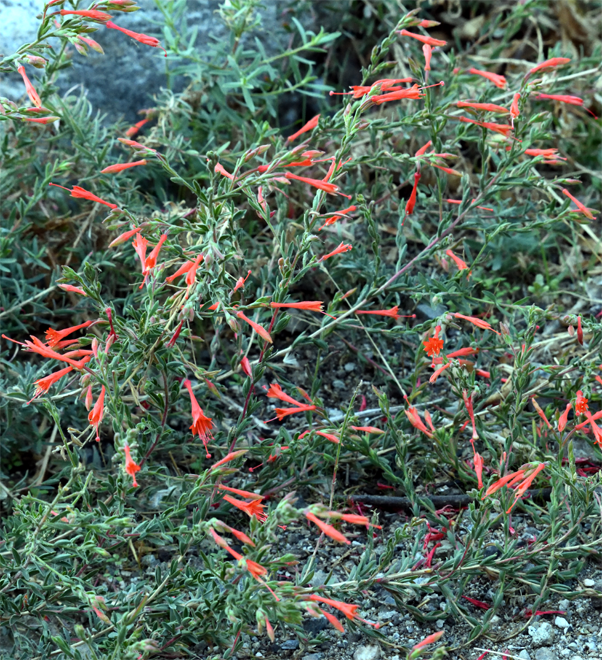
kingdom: Plantae
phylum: Tracheophyta
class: Magnoliopsida
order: Myrtales
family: Onagraceae
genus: Epilobium
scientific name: Epilobium canum
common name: California-fuchsia
